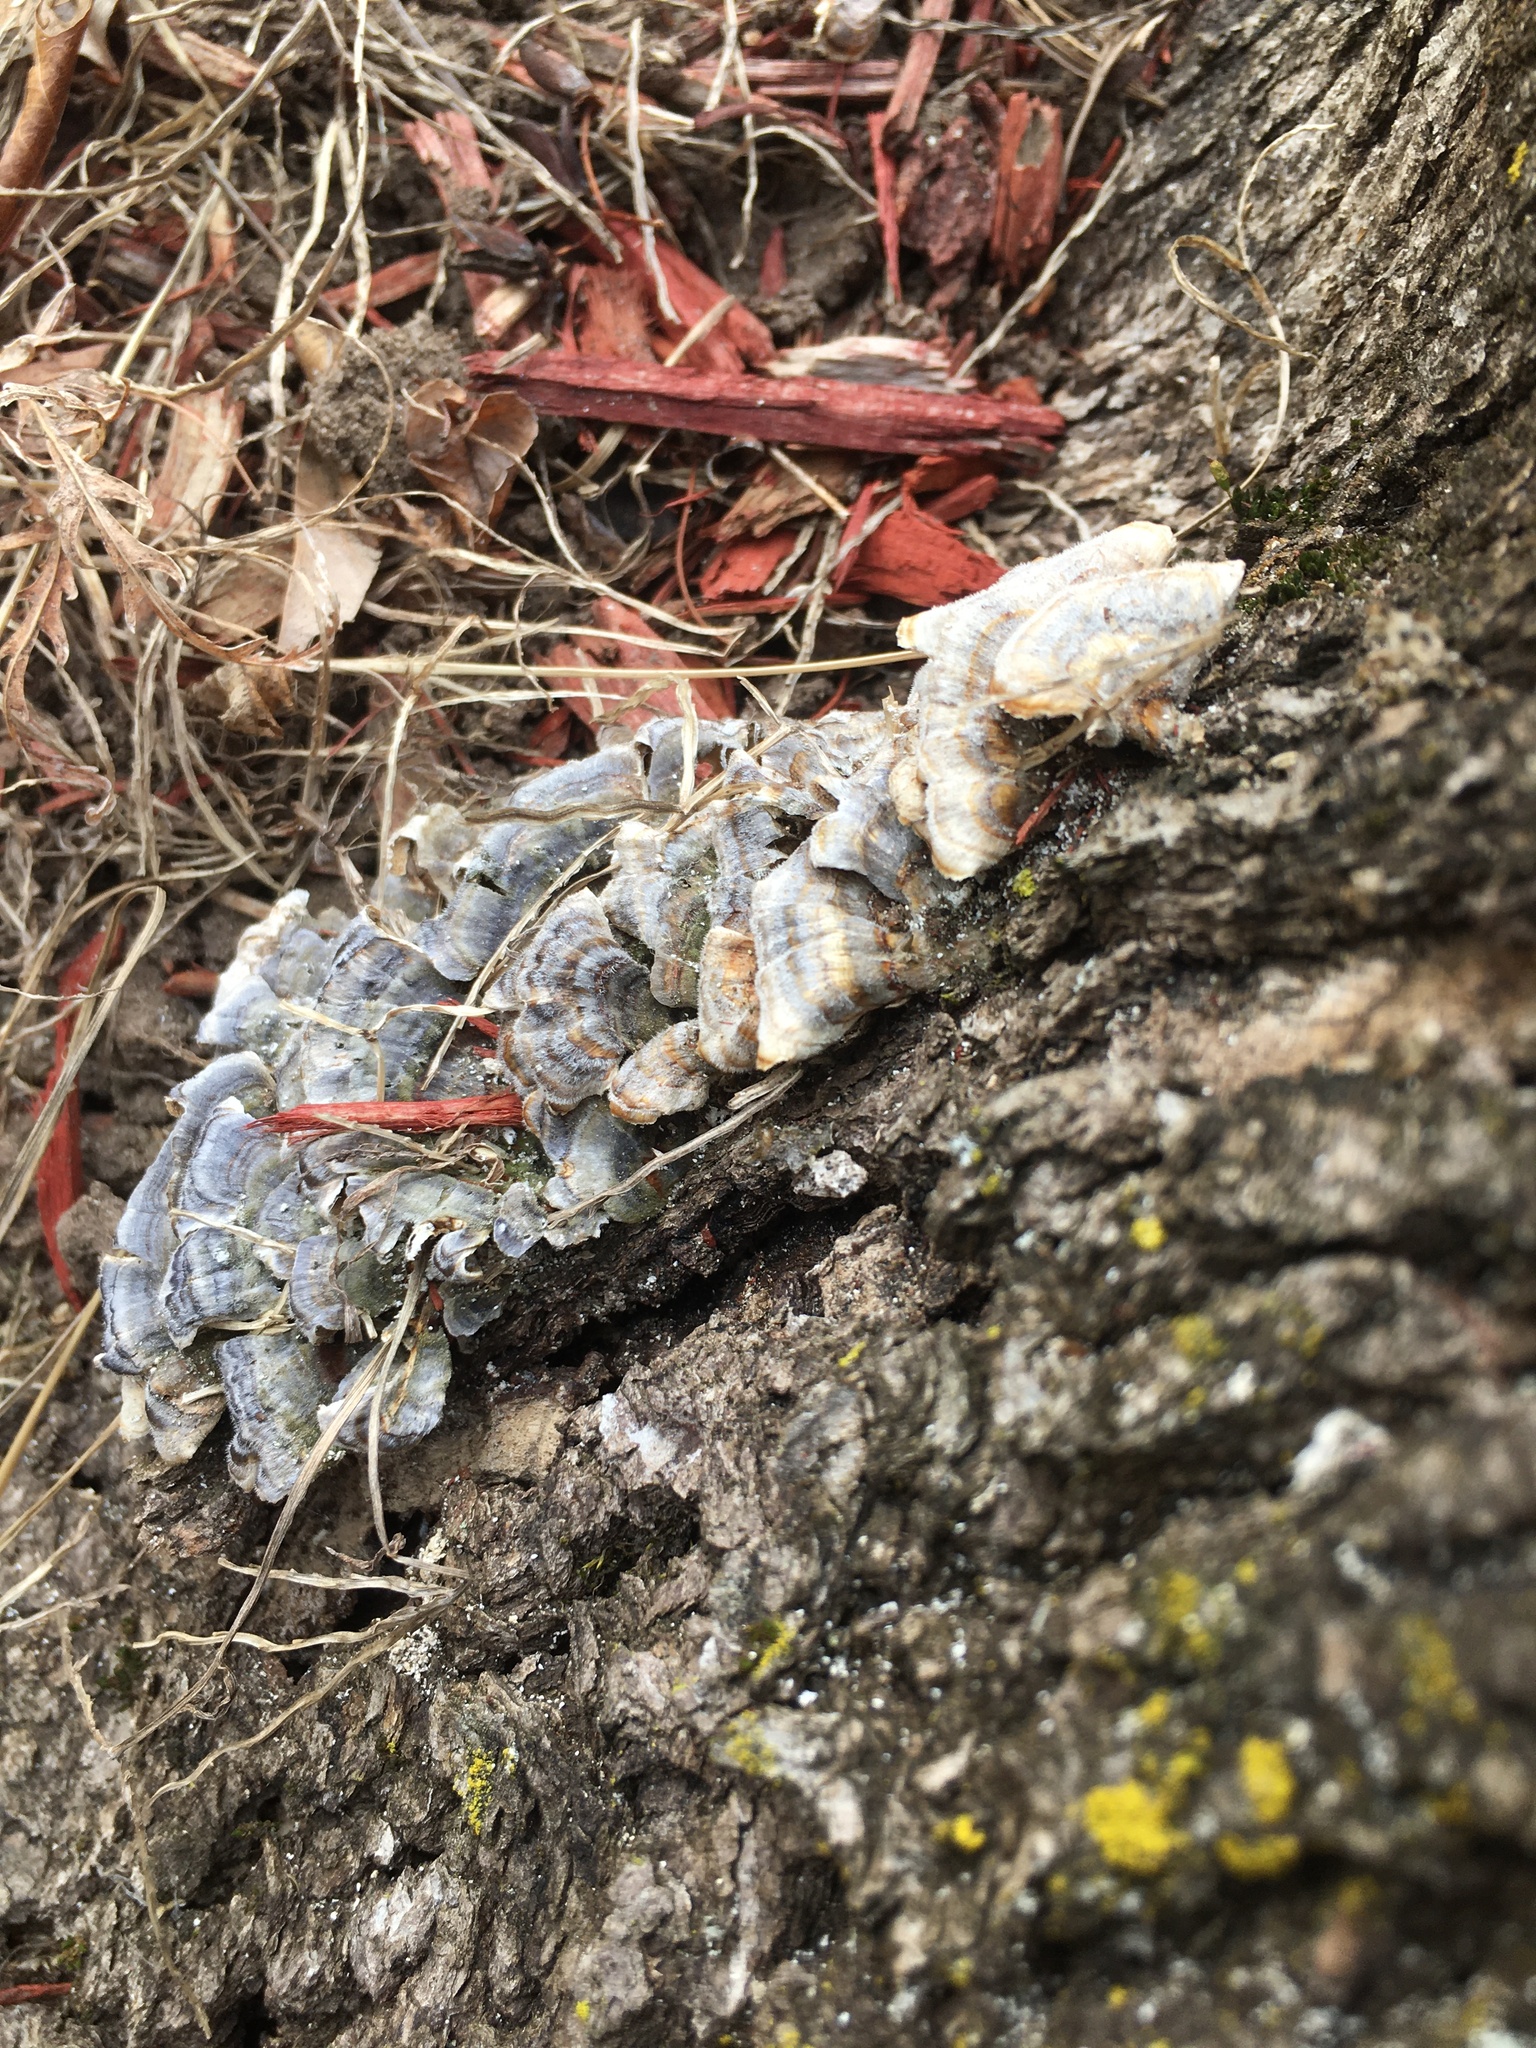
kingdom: Fungi
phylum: Basidiomycota
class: Agaricomycetes
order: Polyporales
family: Polyporaceae
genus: Trametes
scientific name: Trametes versicolor
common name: Turkeytail
